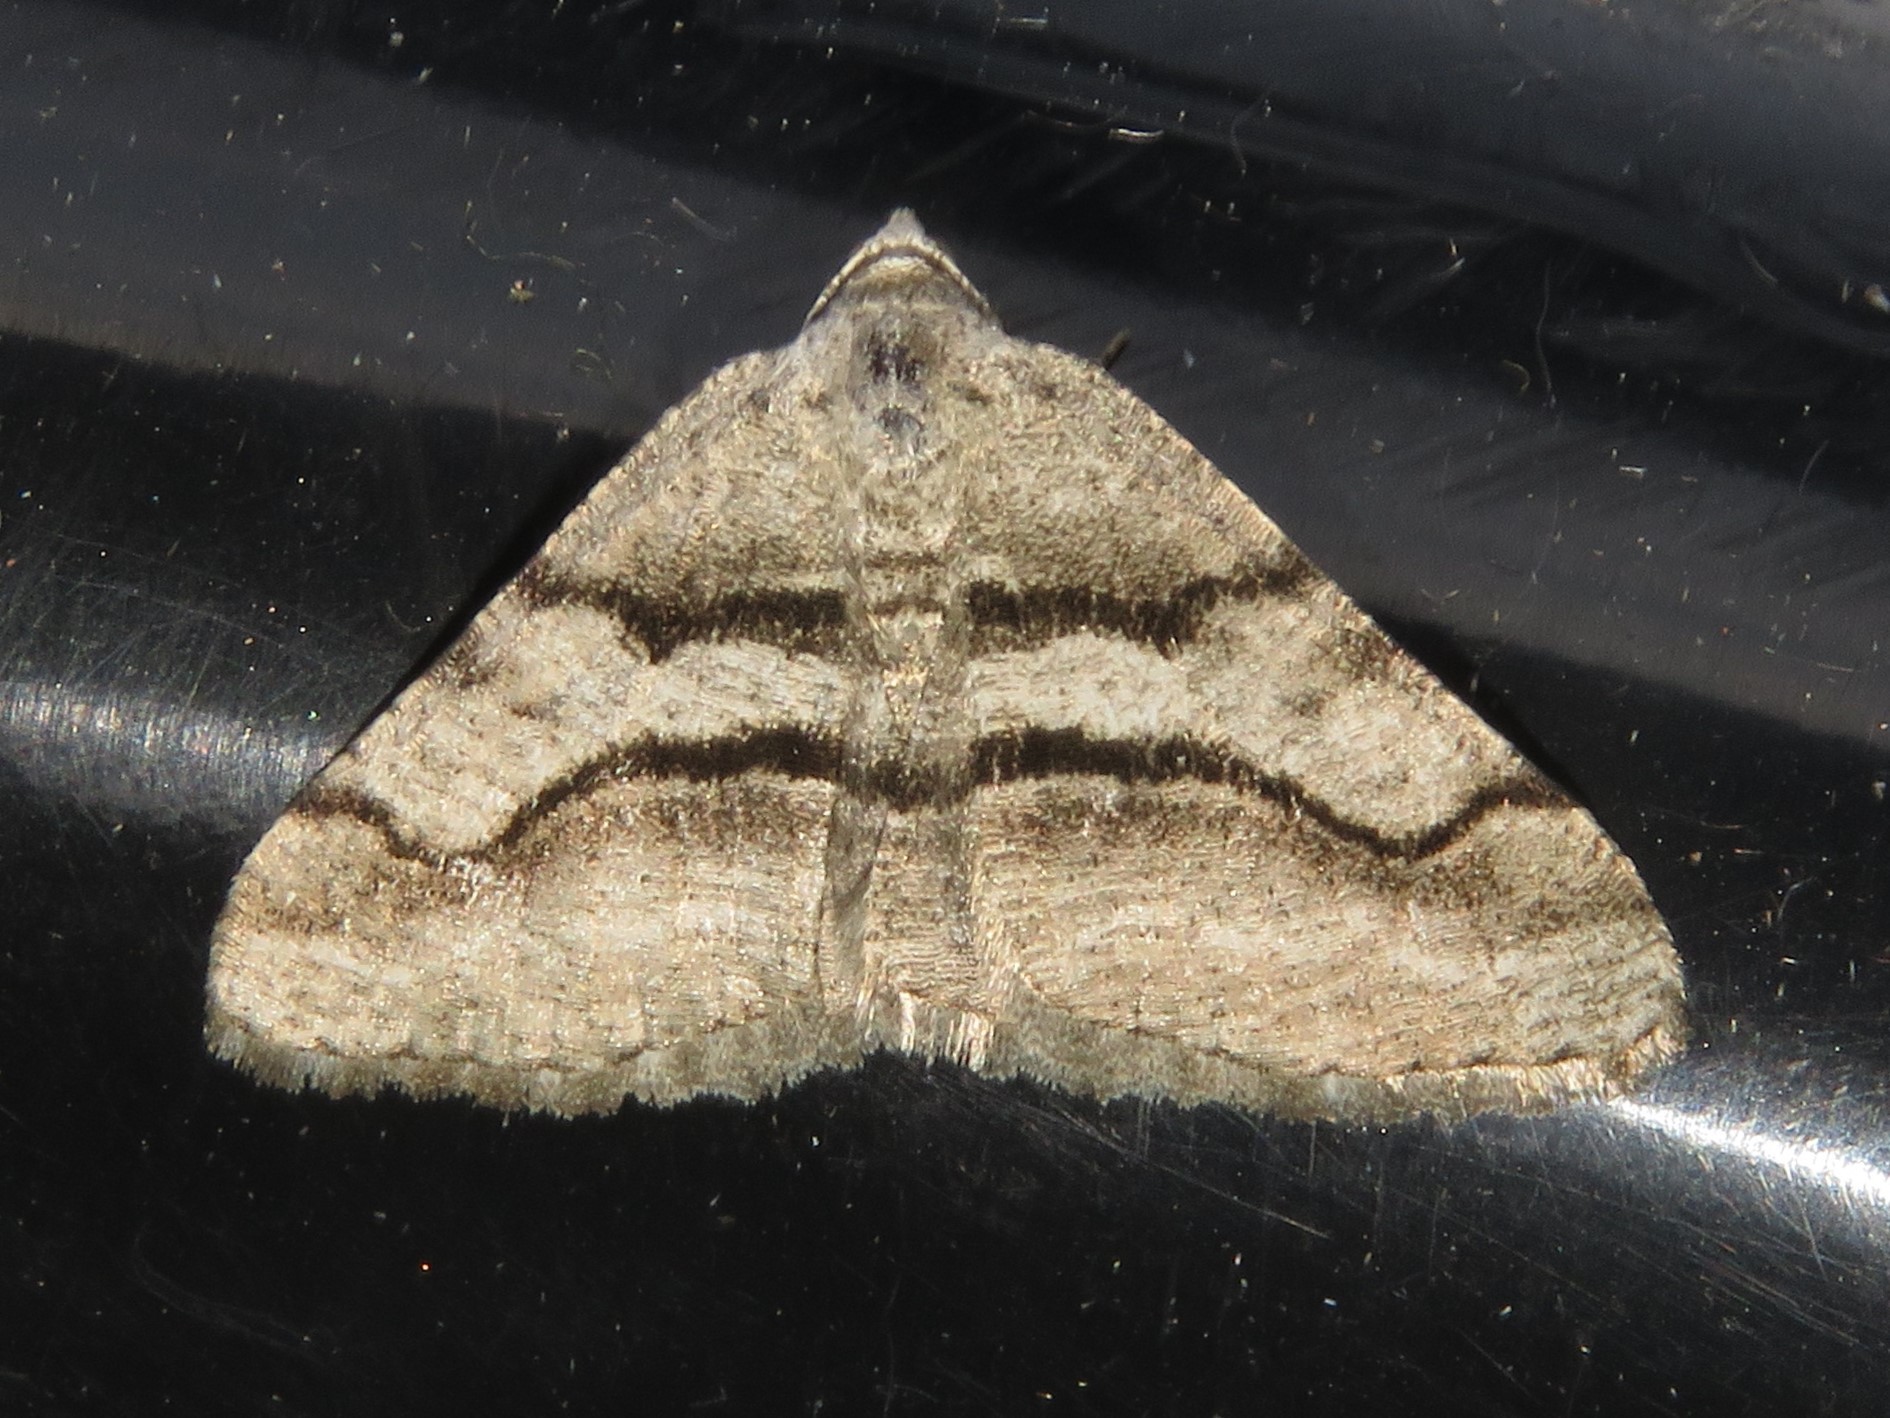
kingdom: Animalia
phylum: Arthropoda
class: Insecta
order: Lepidoptera
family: Geometridae
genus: Digrammia
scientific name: Digrammia continuata
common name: Curve-lined angle
